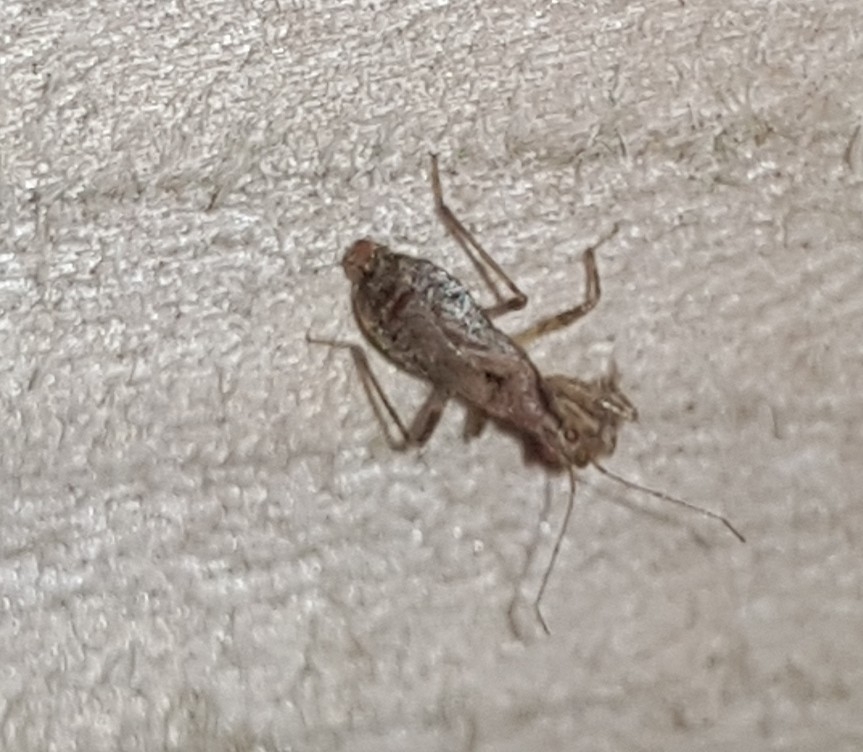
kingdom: Animalia
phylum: Arthropoda
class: Insecta
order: Hemiptera
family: Nabidae
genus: Himacerus
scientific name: Himacerus mirmicoides
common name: Ant damsel bug
